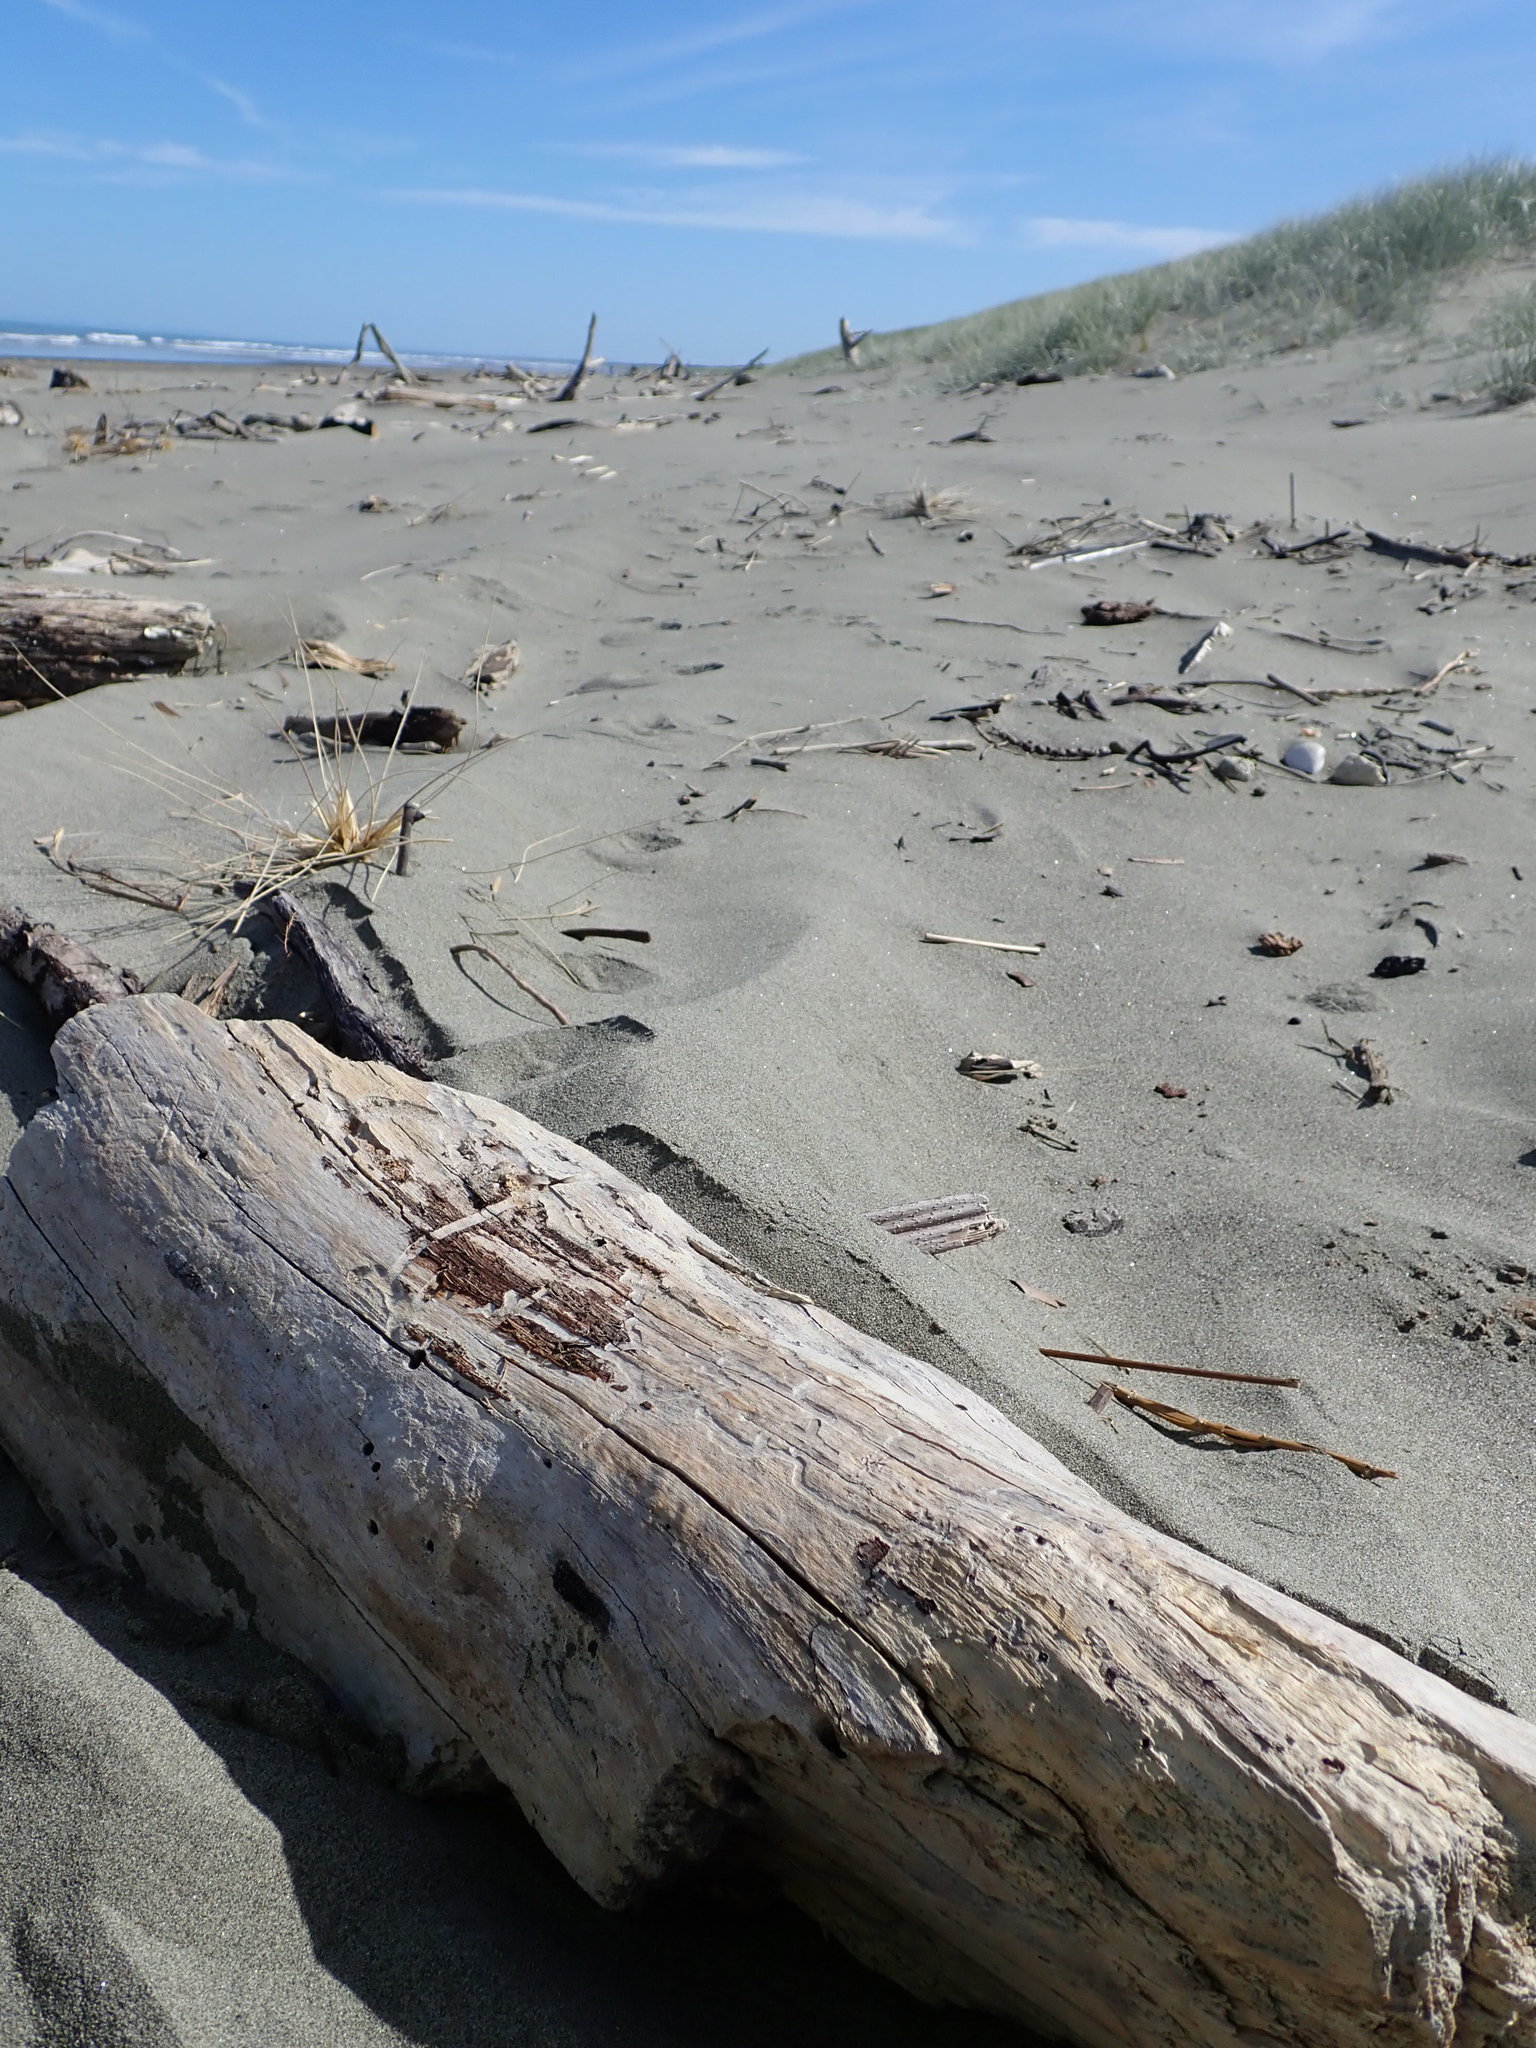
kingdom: Animalia
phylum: Arthropoda
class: Insecta
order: Coleoptera
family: Curculionidae
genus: Mesites
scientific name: Mesites pallidipennis
